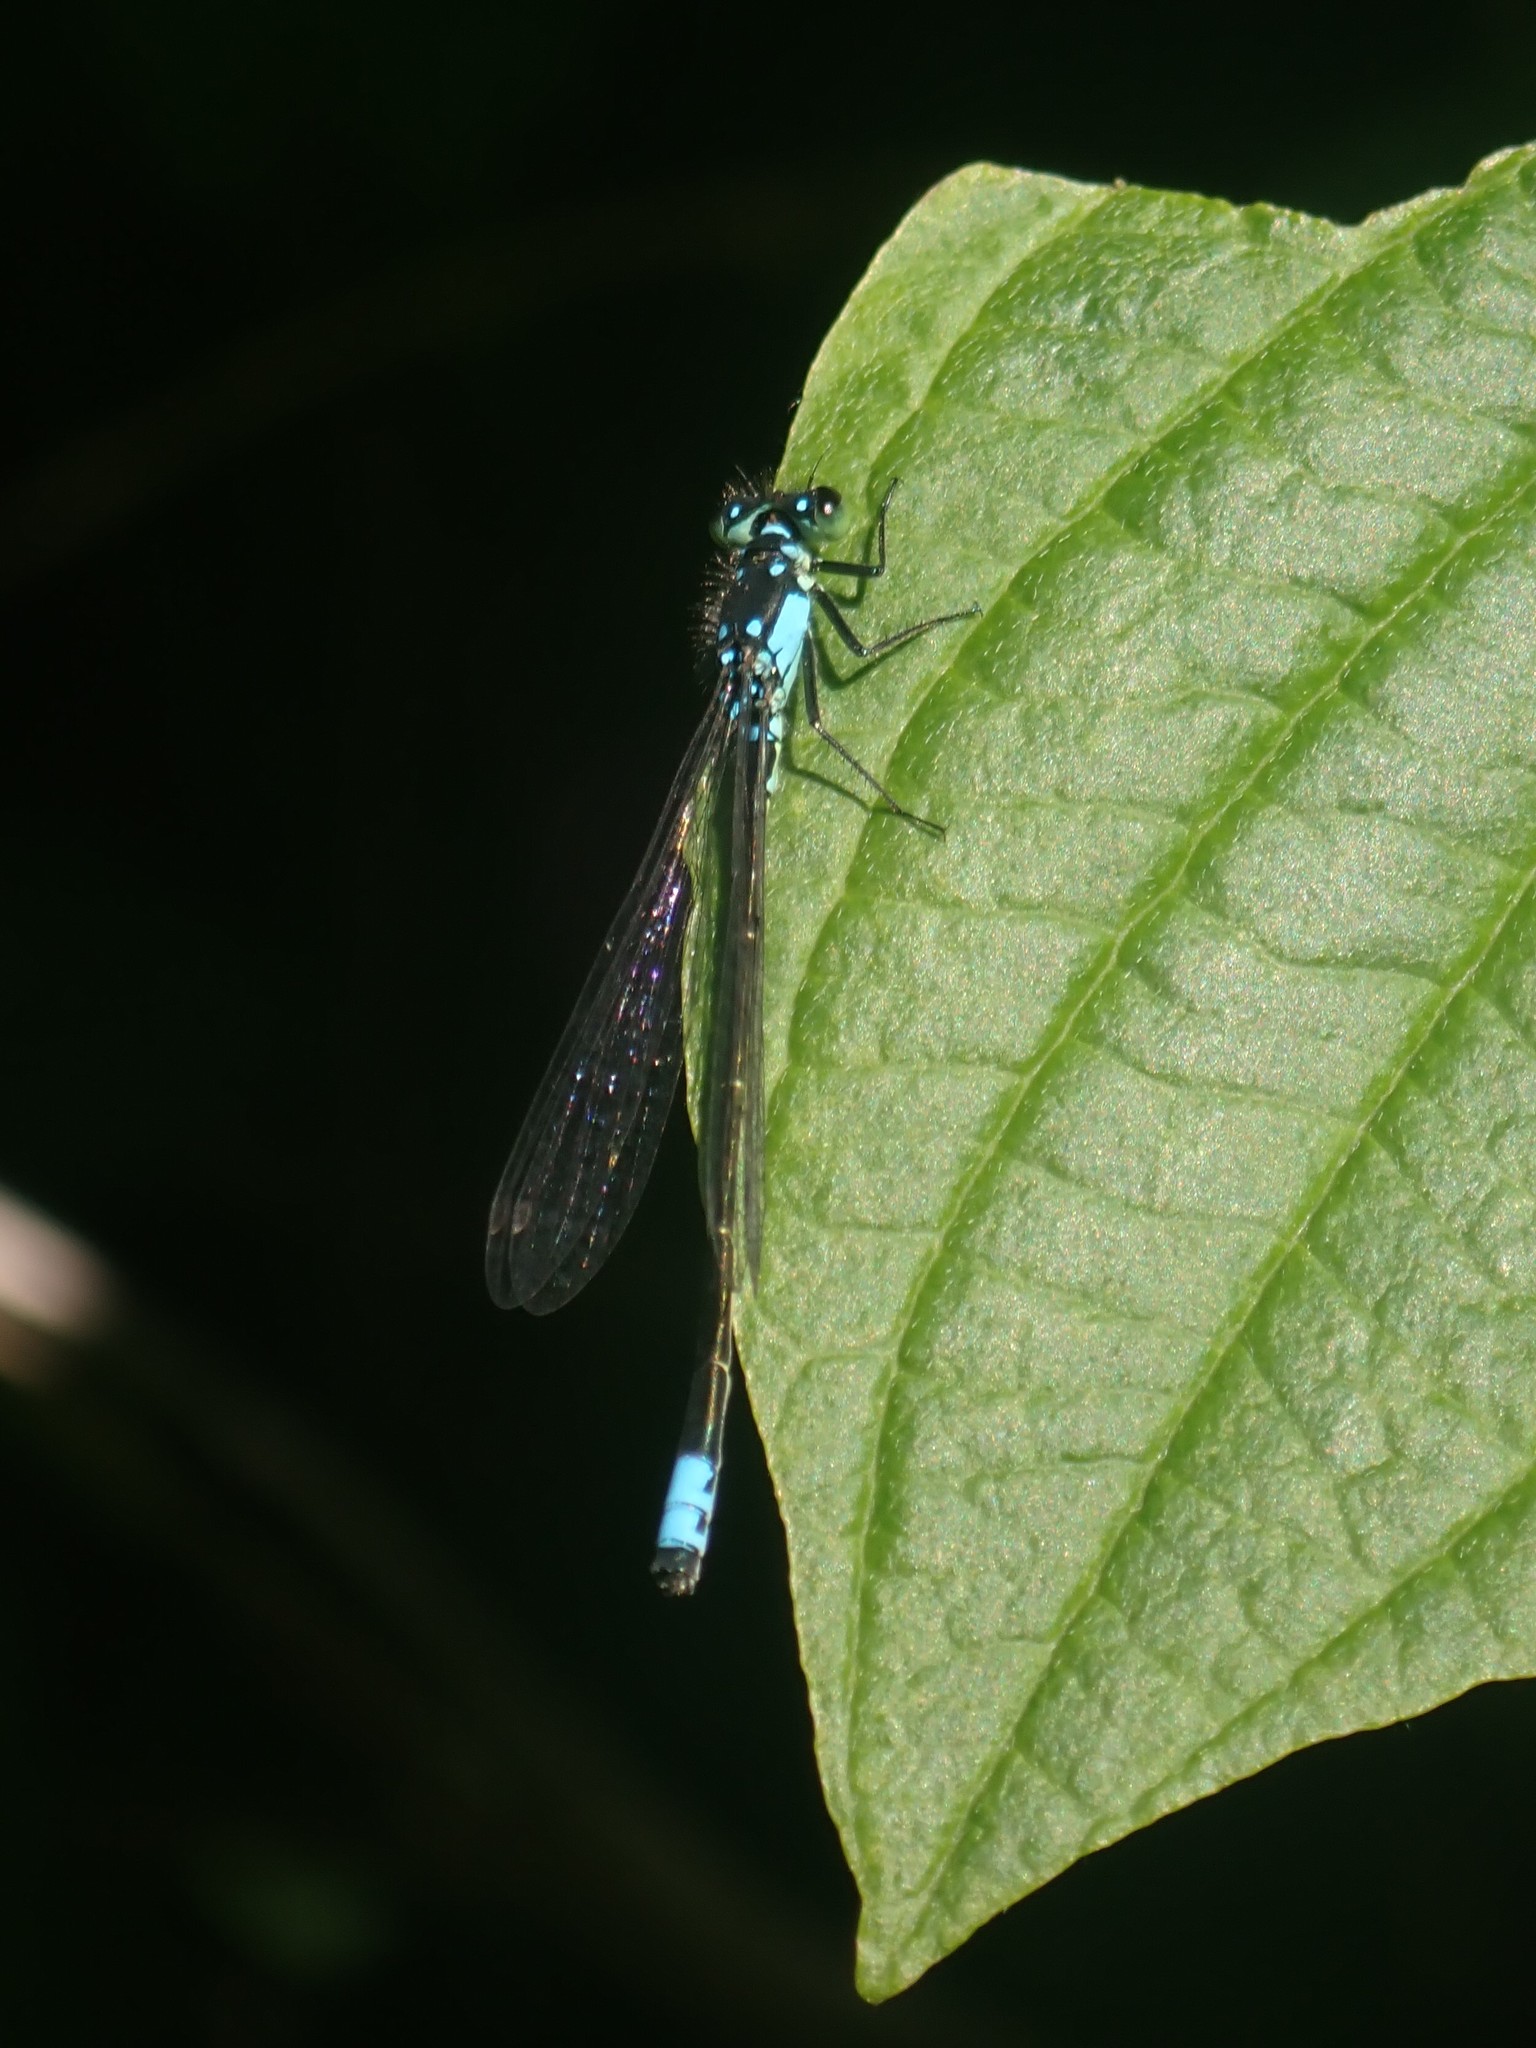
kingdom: Animalia
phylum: Arthropoda
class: Insecta
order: Odonata
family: Coenagrionidae
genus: Ischnura
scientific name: Ischnura cervula
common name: Pacific forktail
